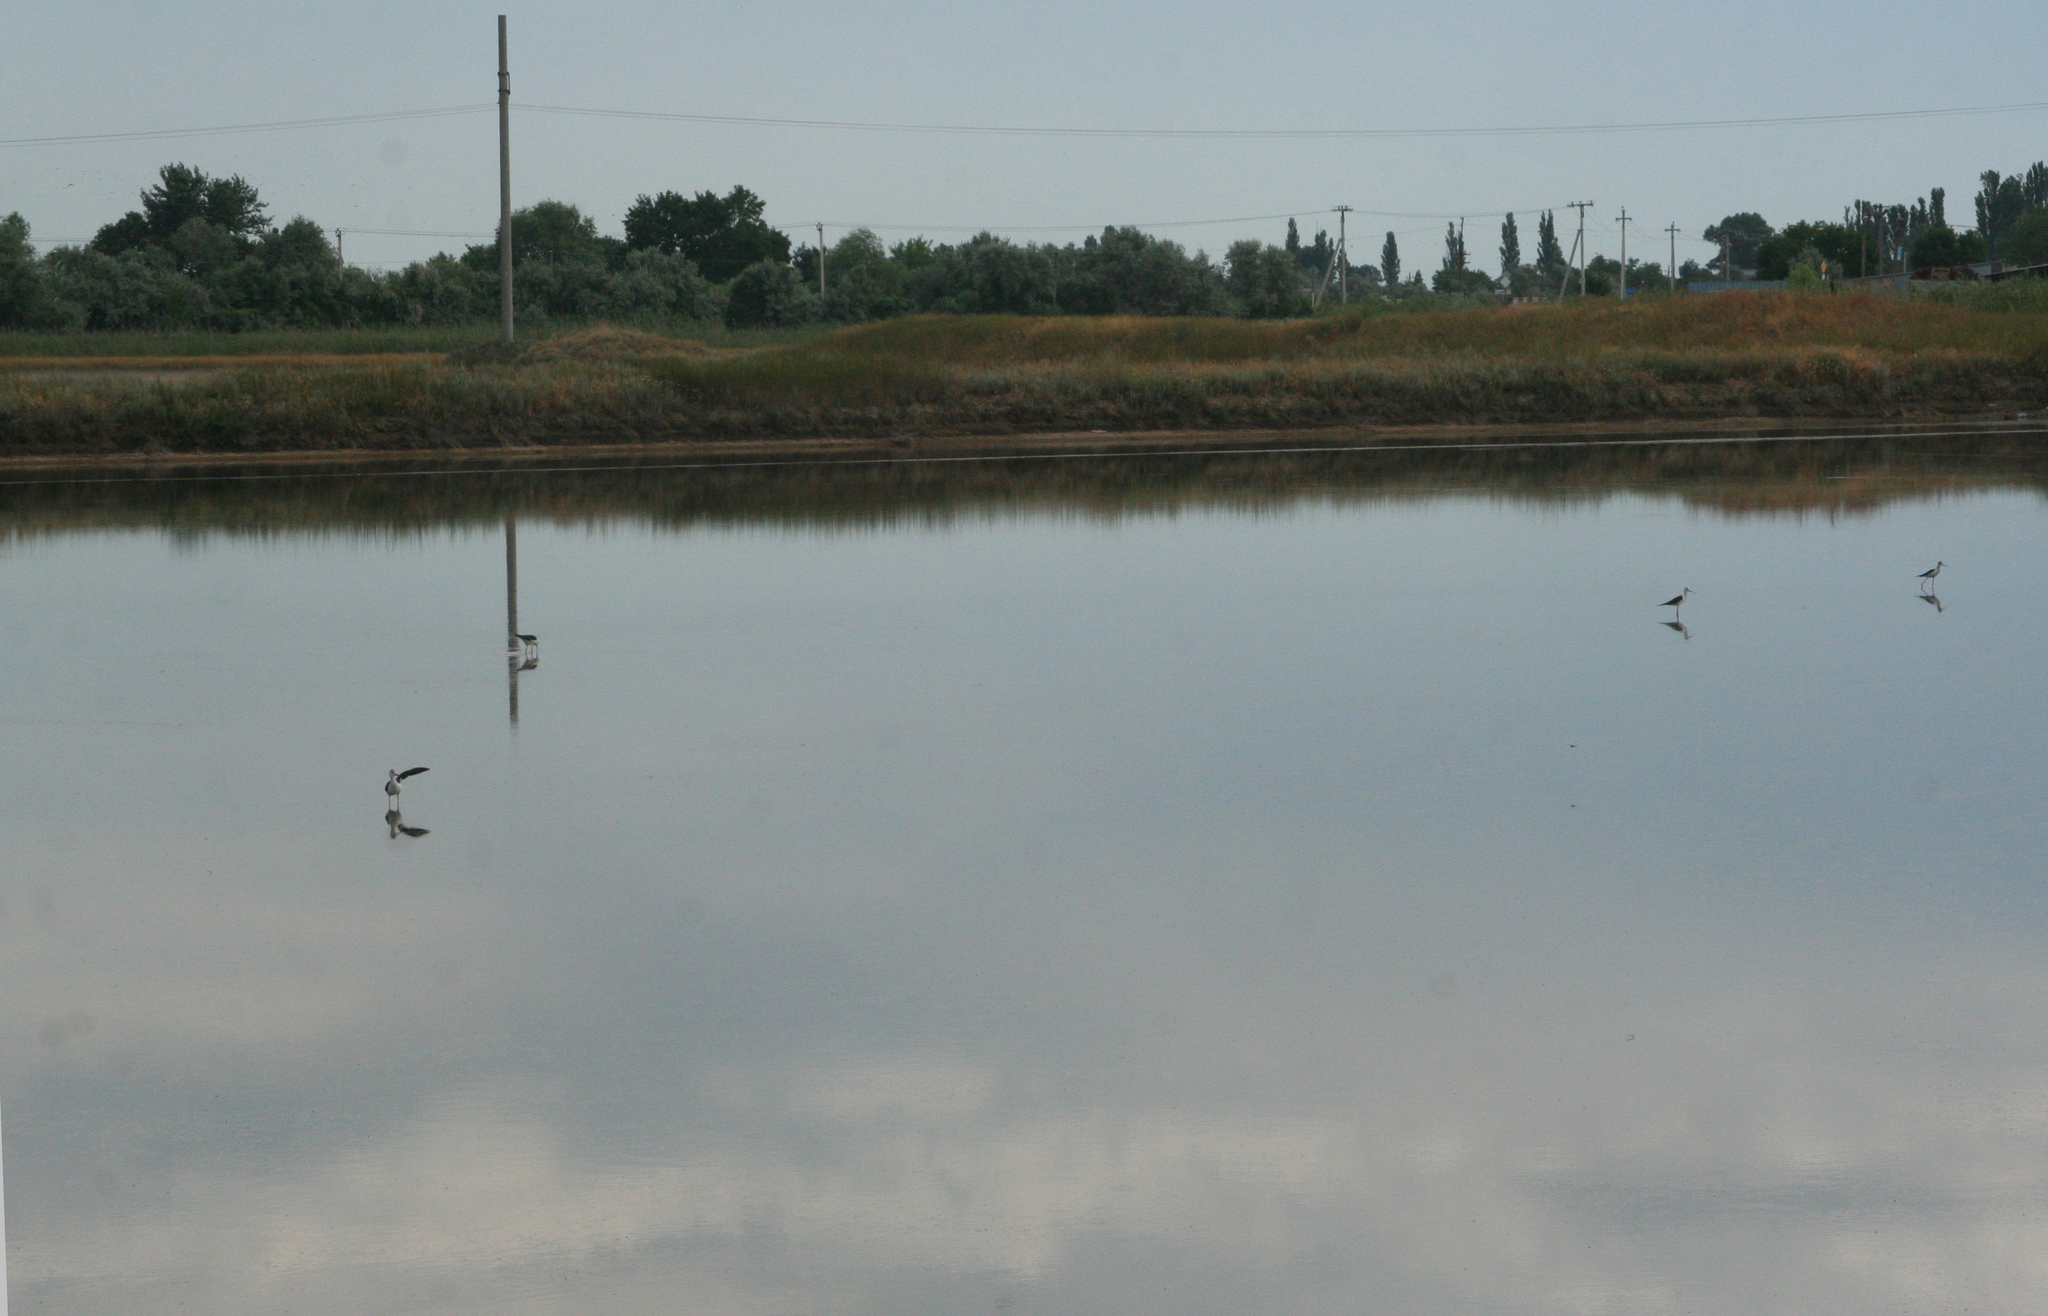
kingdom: Animalia
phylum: Chordata
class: Aves
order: Charadriiformes
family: Recurvirostridae
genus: Himantopus
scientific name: Himantopus himantopus
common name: Black-winged stilt
